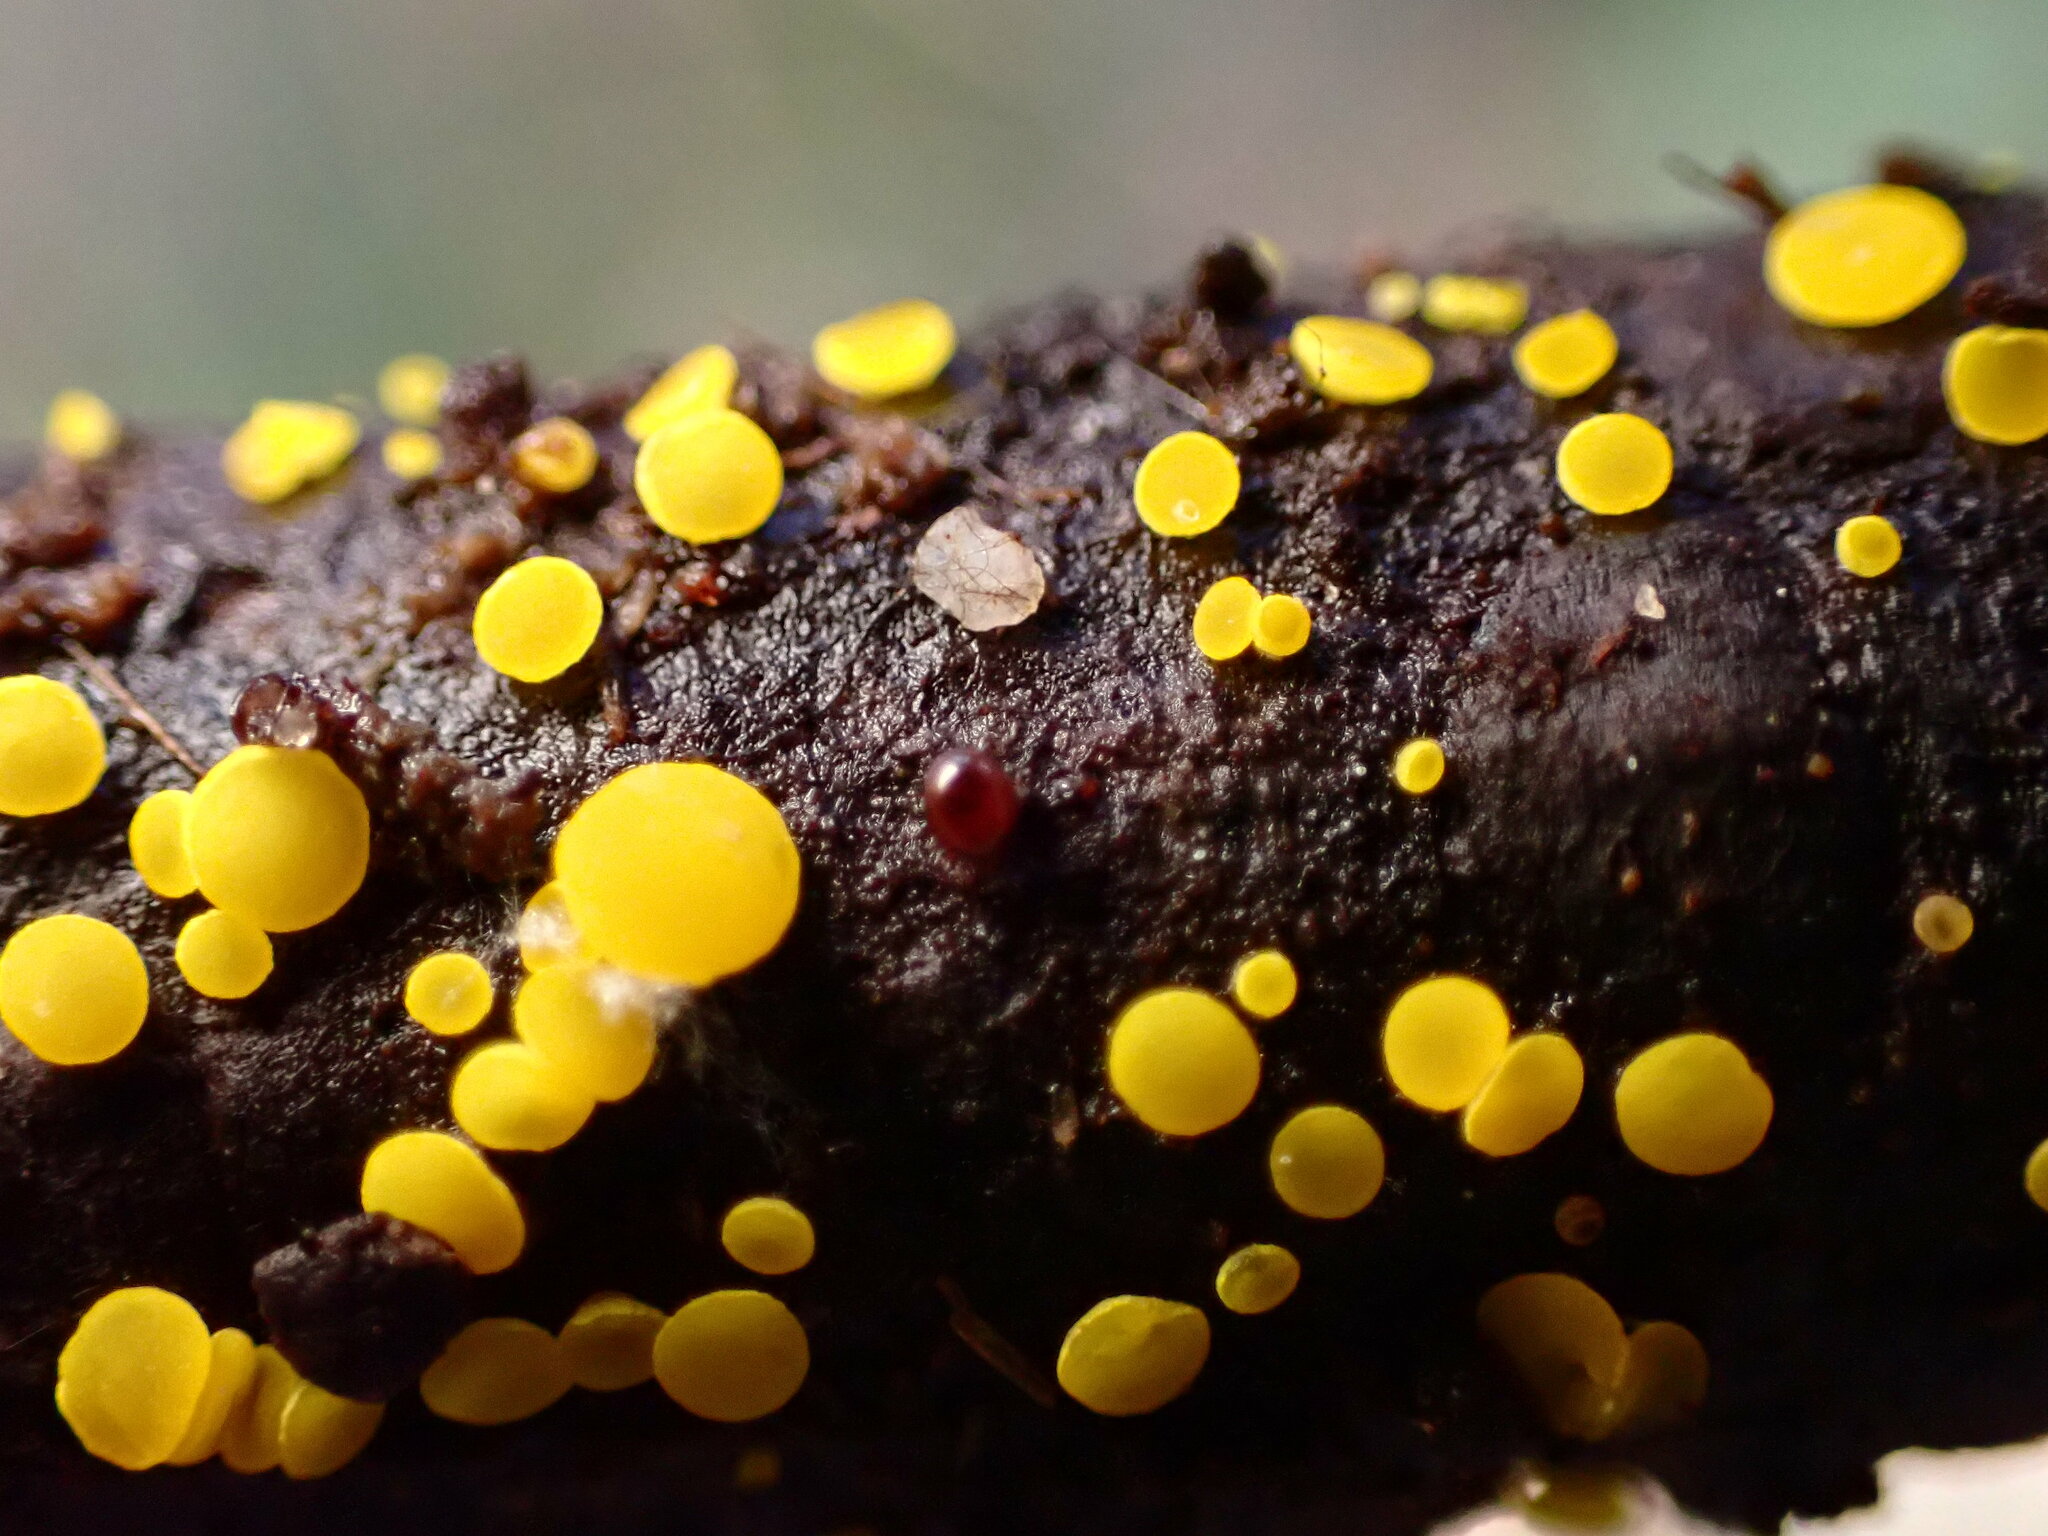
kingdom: Fungi
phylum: Ascomycota
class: Leotiomycetes
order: Helotiales
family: Pezizellaceae
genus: Calycina
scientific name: Calycina citrina
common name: Yellow fairy cups
